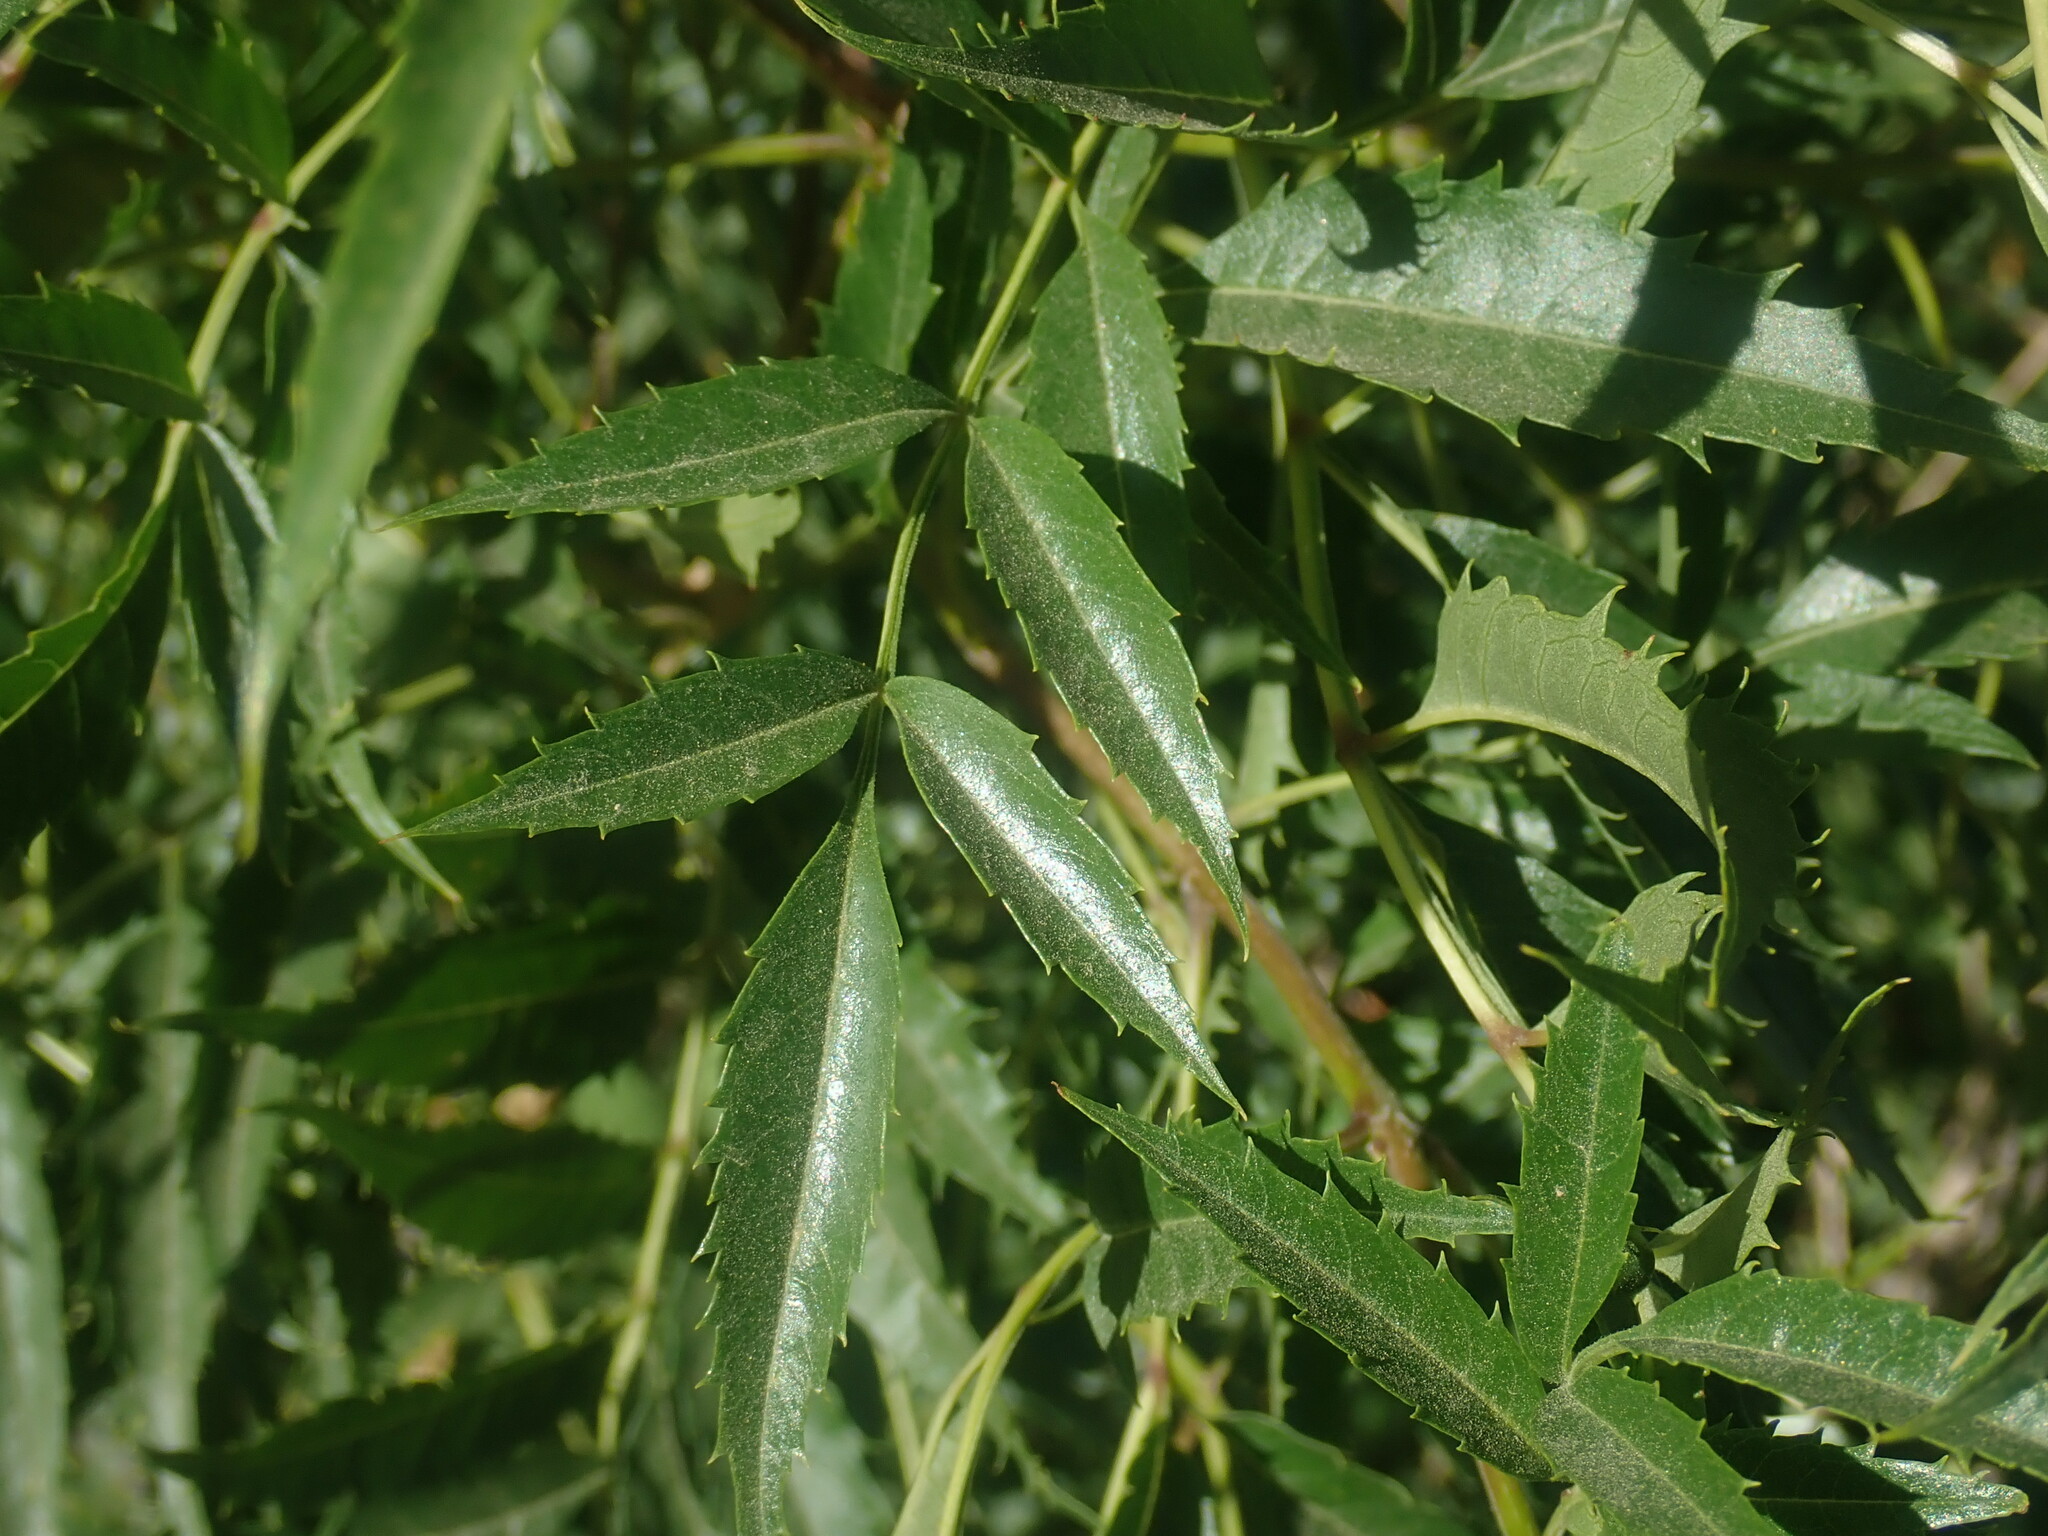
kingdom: Plantae
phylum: Tracheophyta
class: Magnoliopsida
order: Lamiales
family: Bignoniaceae
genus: Tecoma
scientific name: Tecoma stans
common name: Yellow trumpetbush
